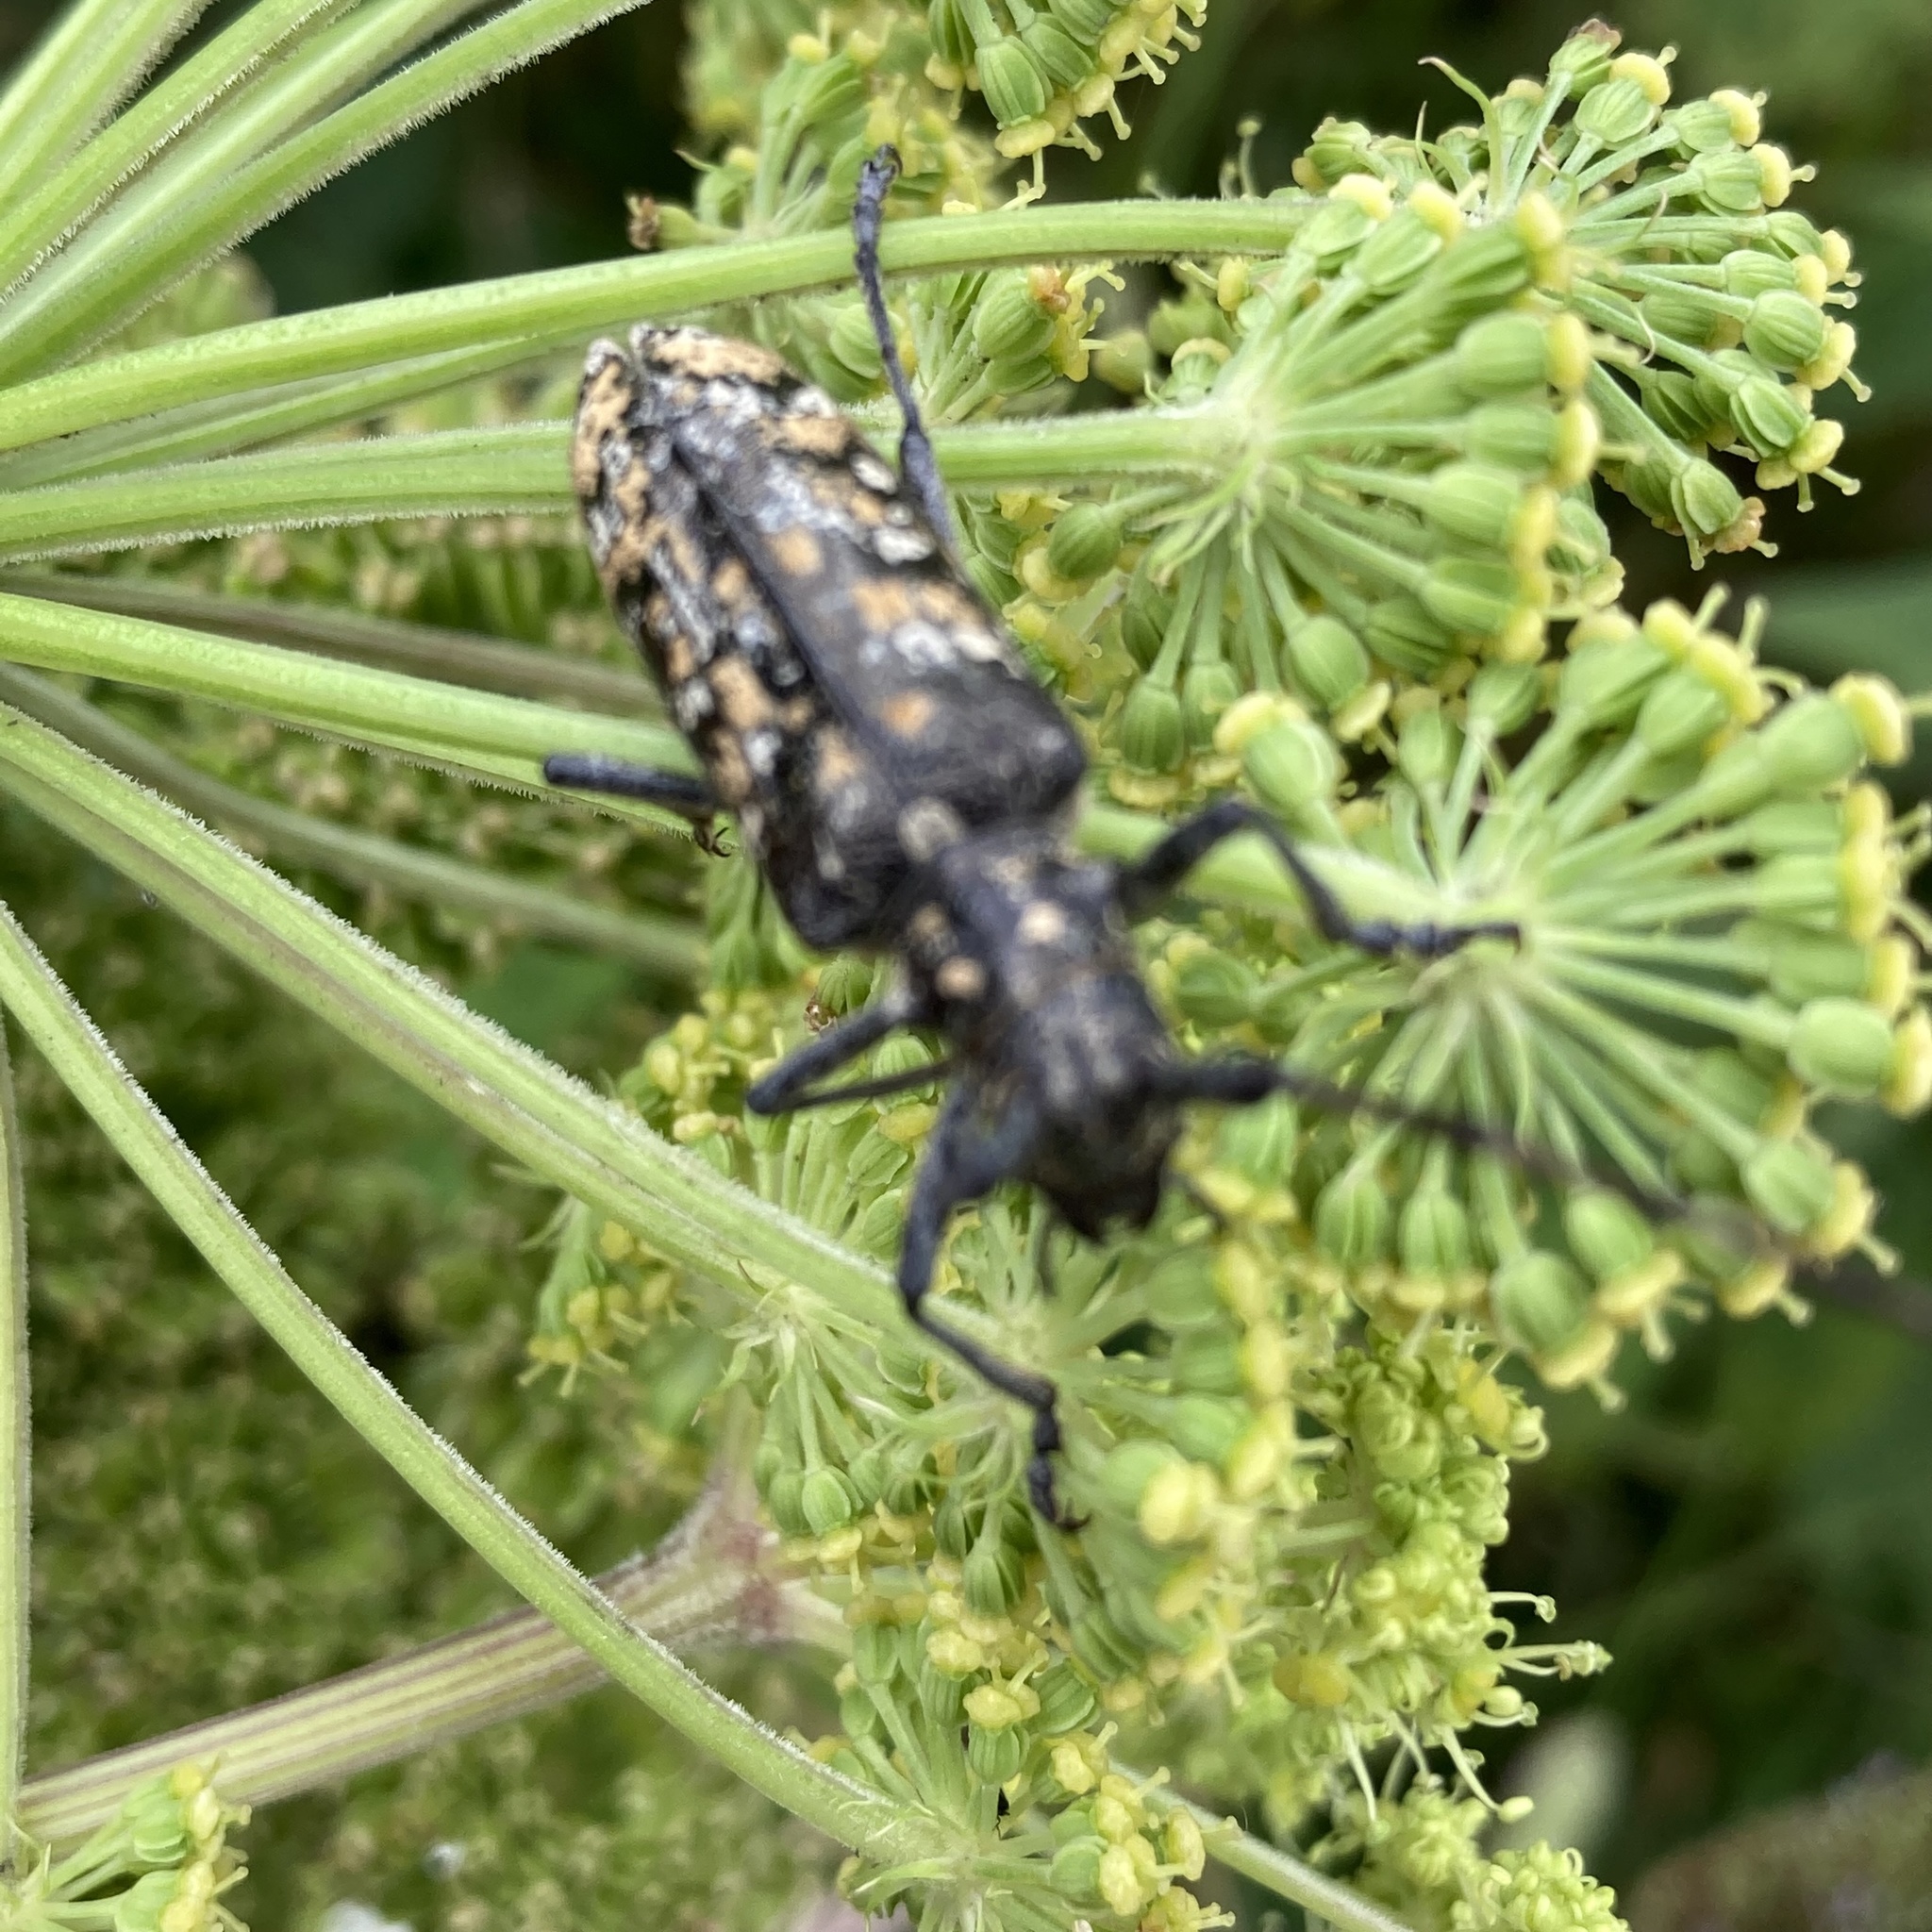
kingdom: Animalia
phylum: Arthropoda
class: Insecta
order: Coleoptera
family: Cerambycidae
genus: Monochamus
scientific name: Monochamus marmorator
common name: Balsam fir sawyer
